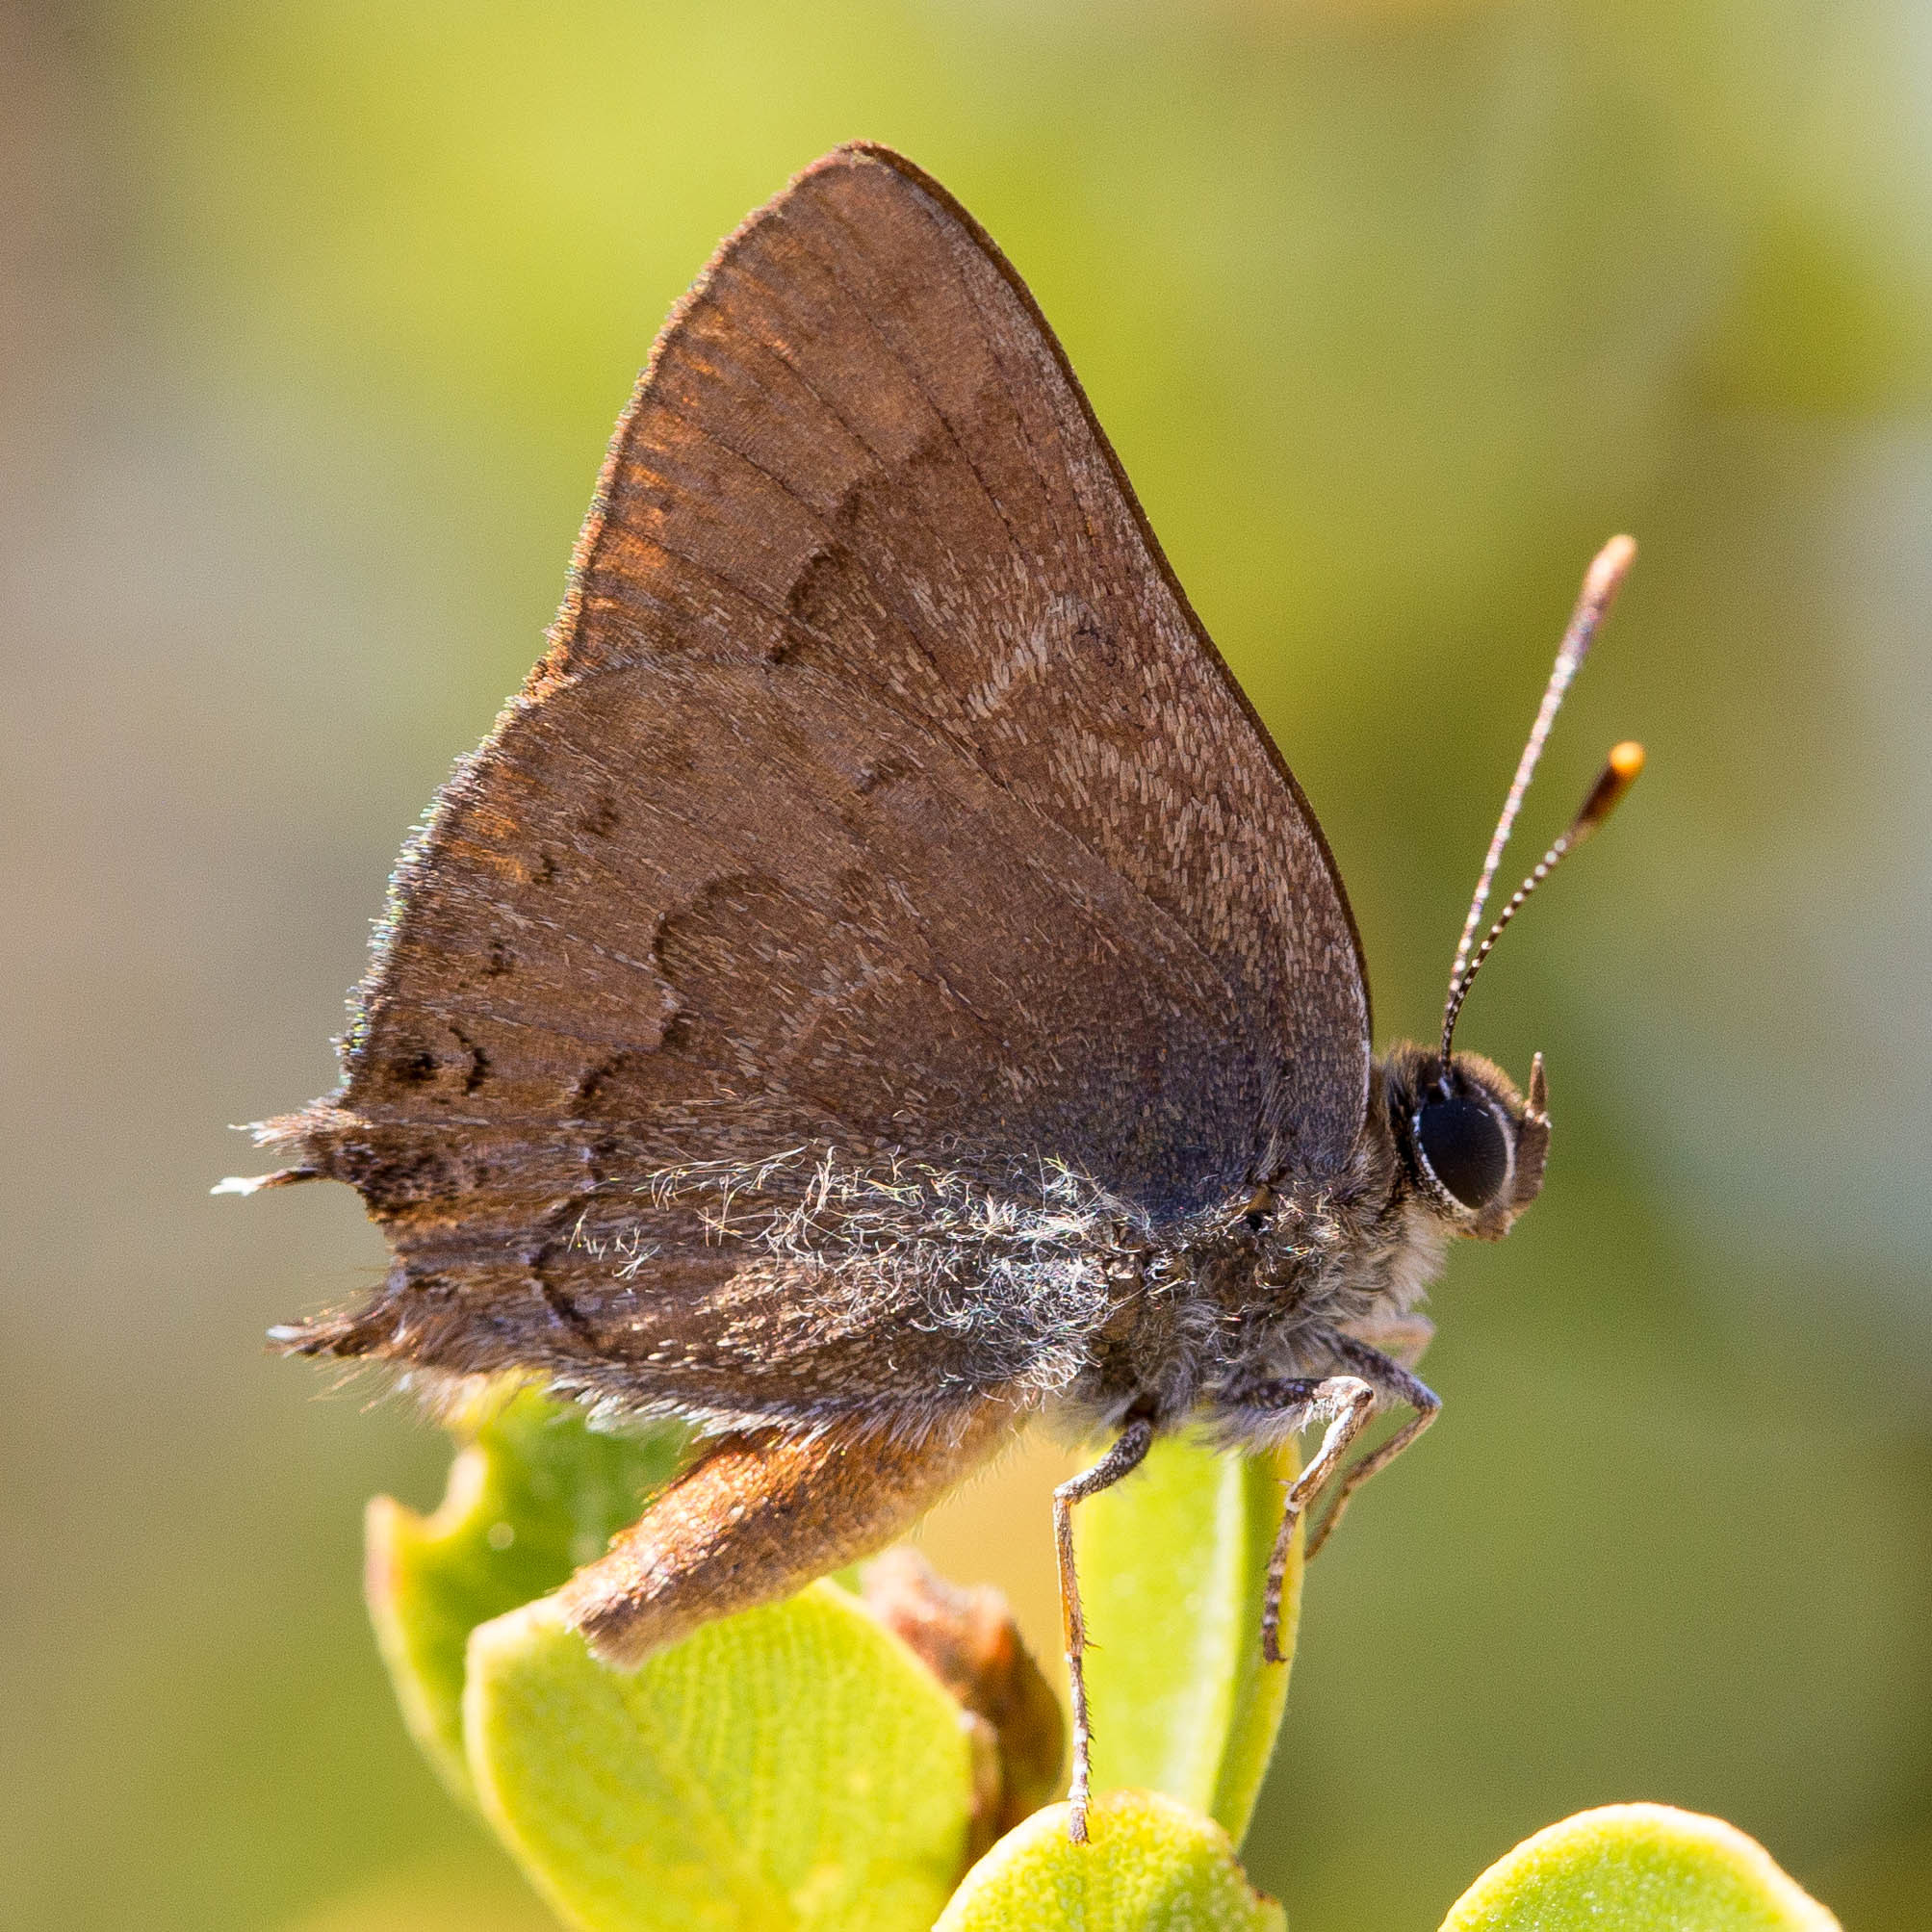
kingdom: Animalia
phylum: Arthropoda
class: Insecta
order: Lepidoptera
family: Lycaenidae
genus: Strymon
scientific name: Strymon saepium
